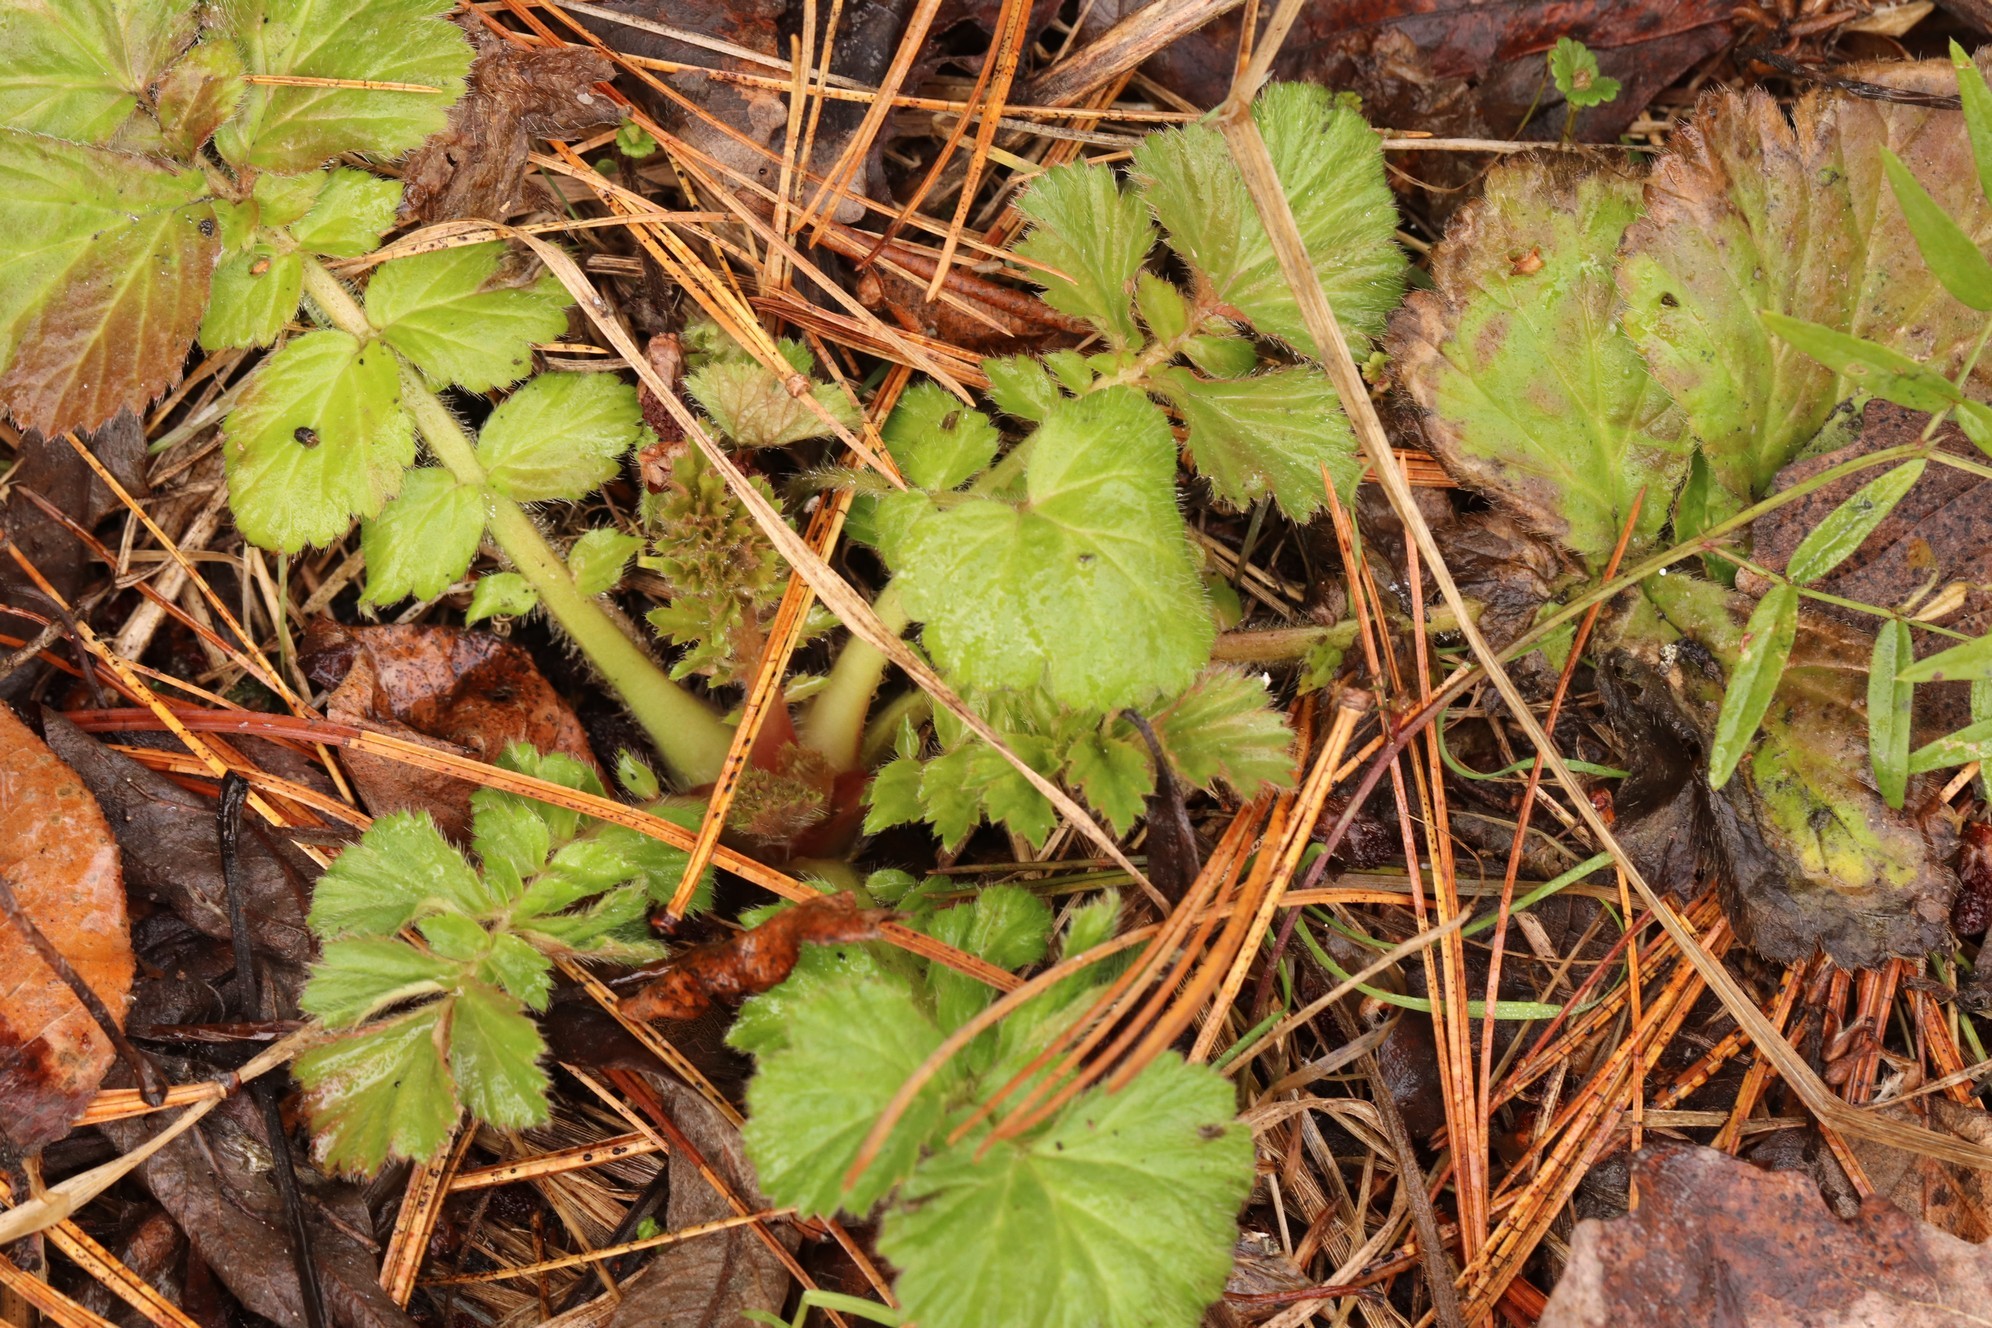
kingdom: Plantae
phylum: Tracheophyta
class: Magnoliopsida
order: Rosales
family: Rosaceae
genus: Geum
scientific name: Geum aleppicum
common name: Yellow avens
